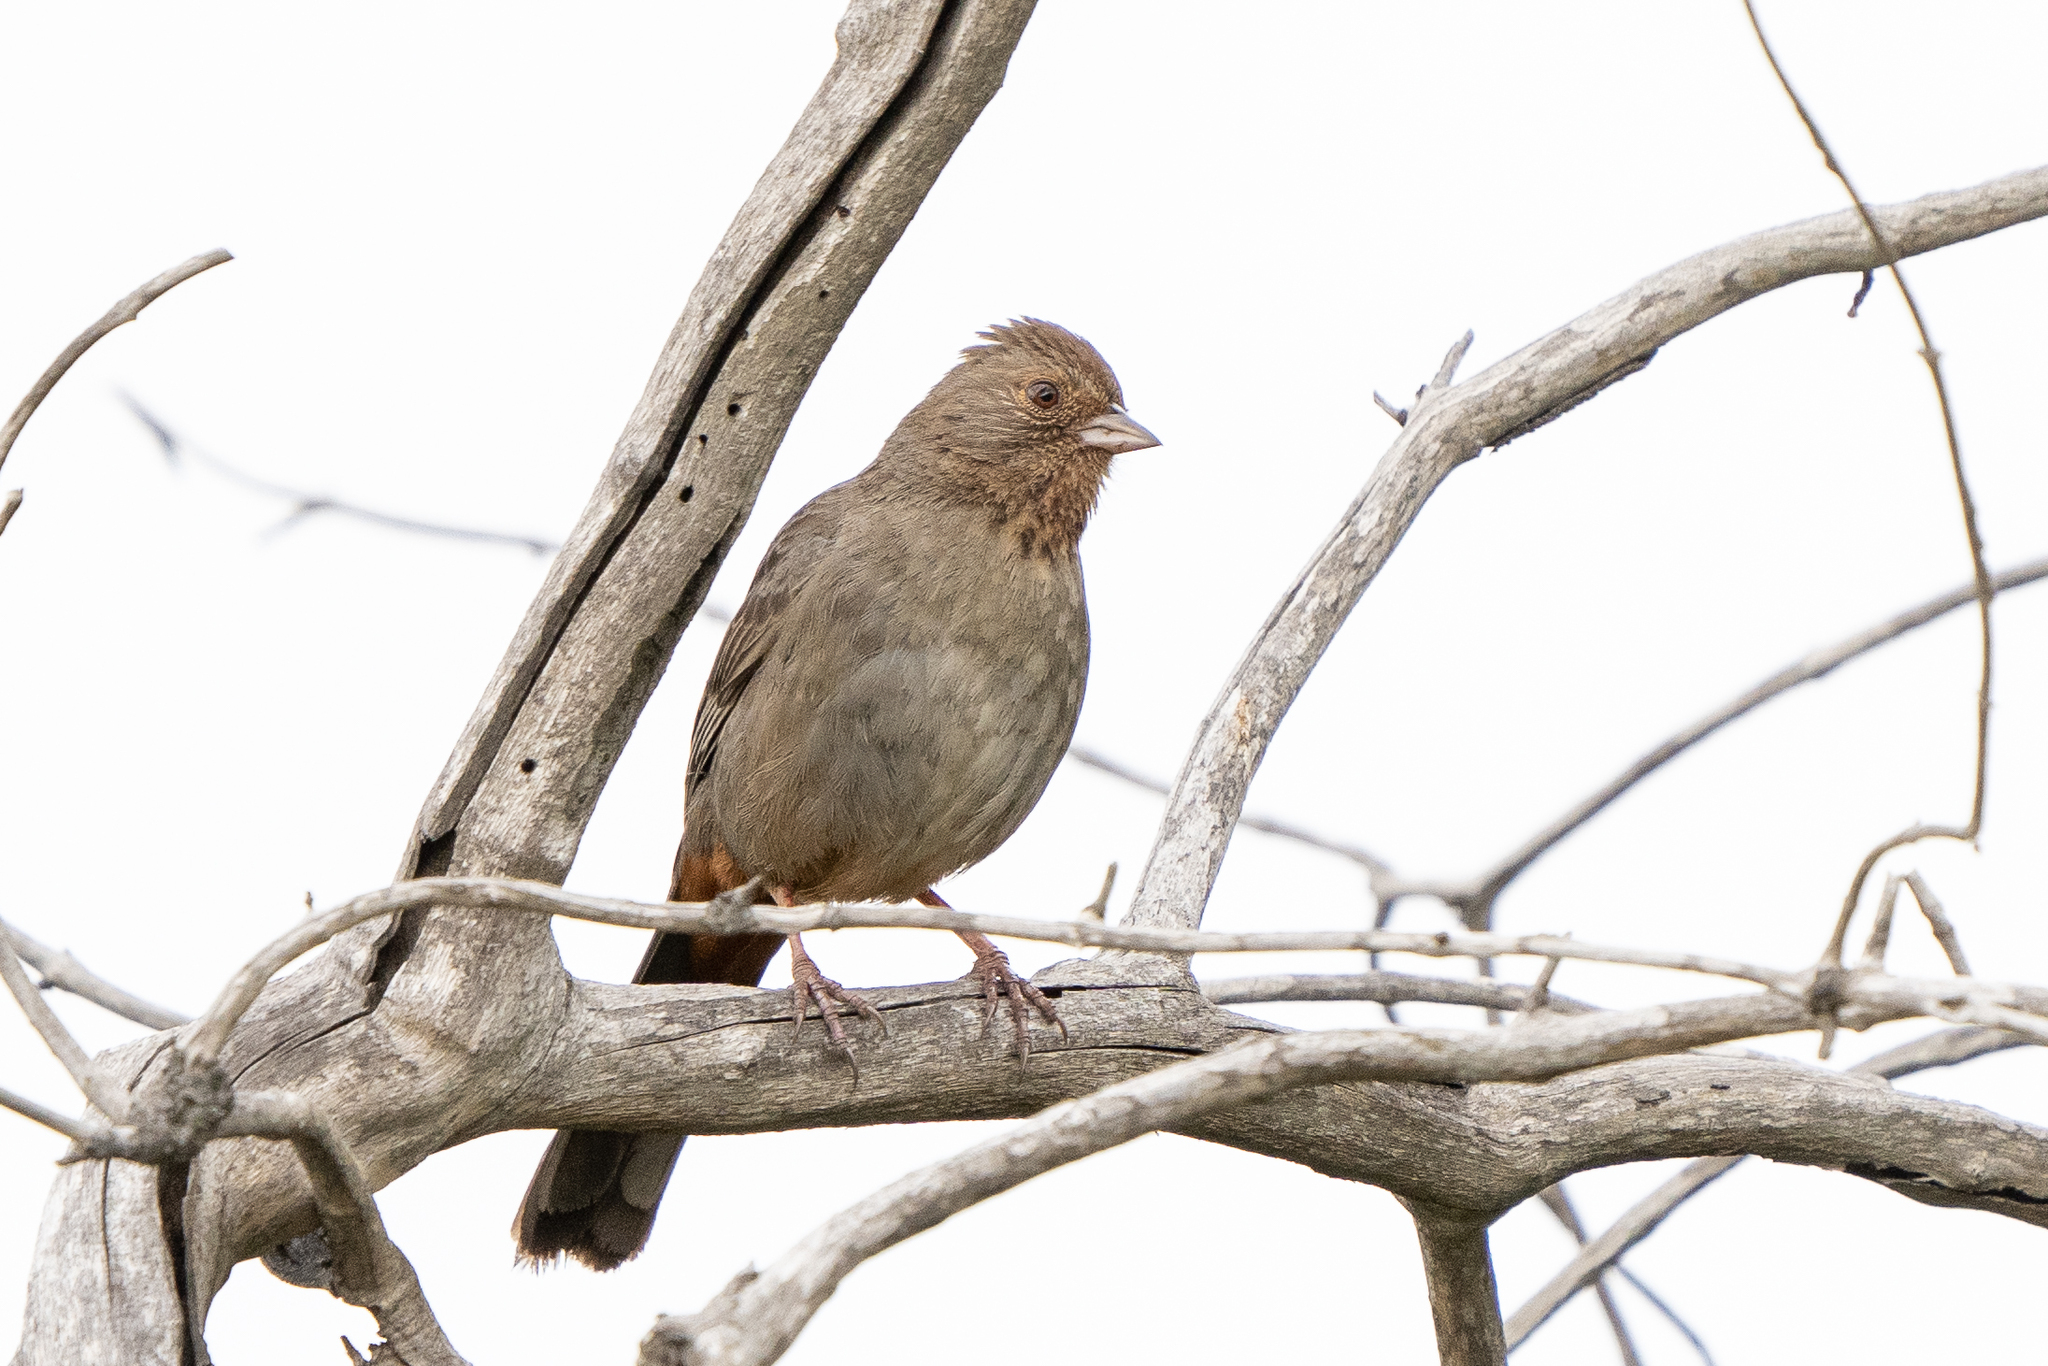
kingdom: Animalia
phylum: Chordata
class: Aves
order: Passeriformes
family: Passerellidae
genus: Melozone
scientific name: Melozone crissalis
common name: California towhee
